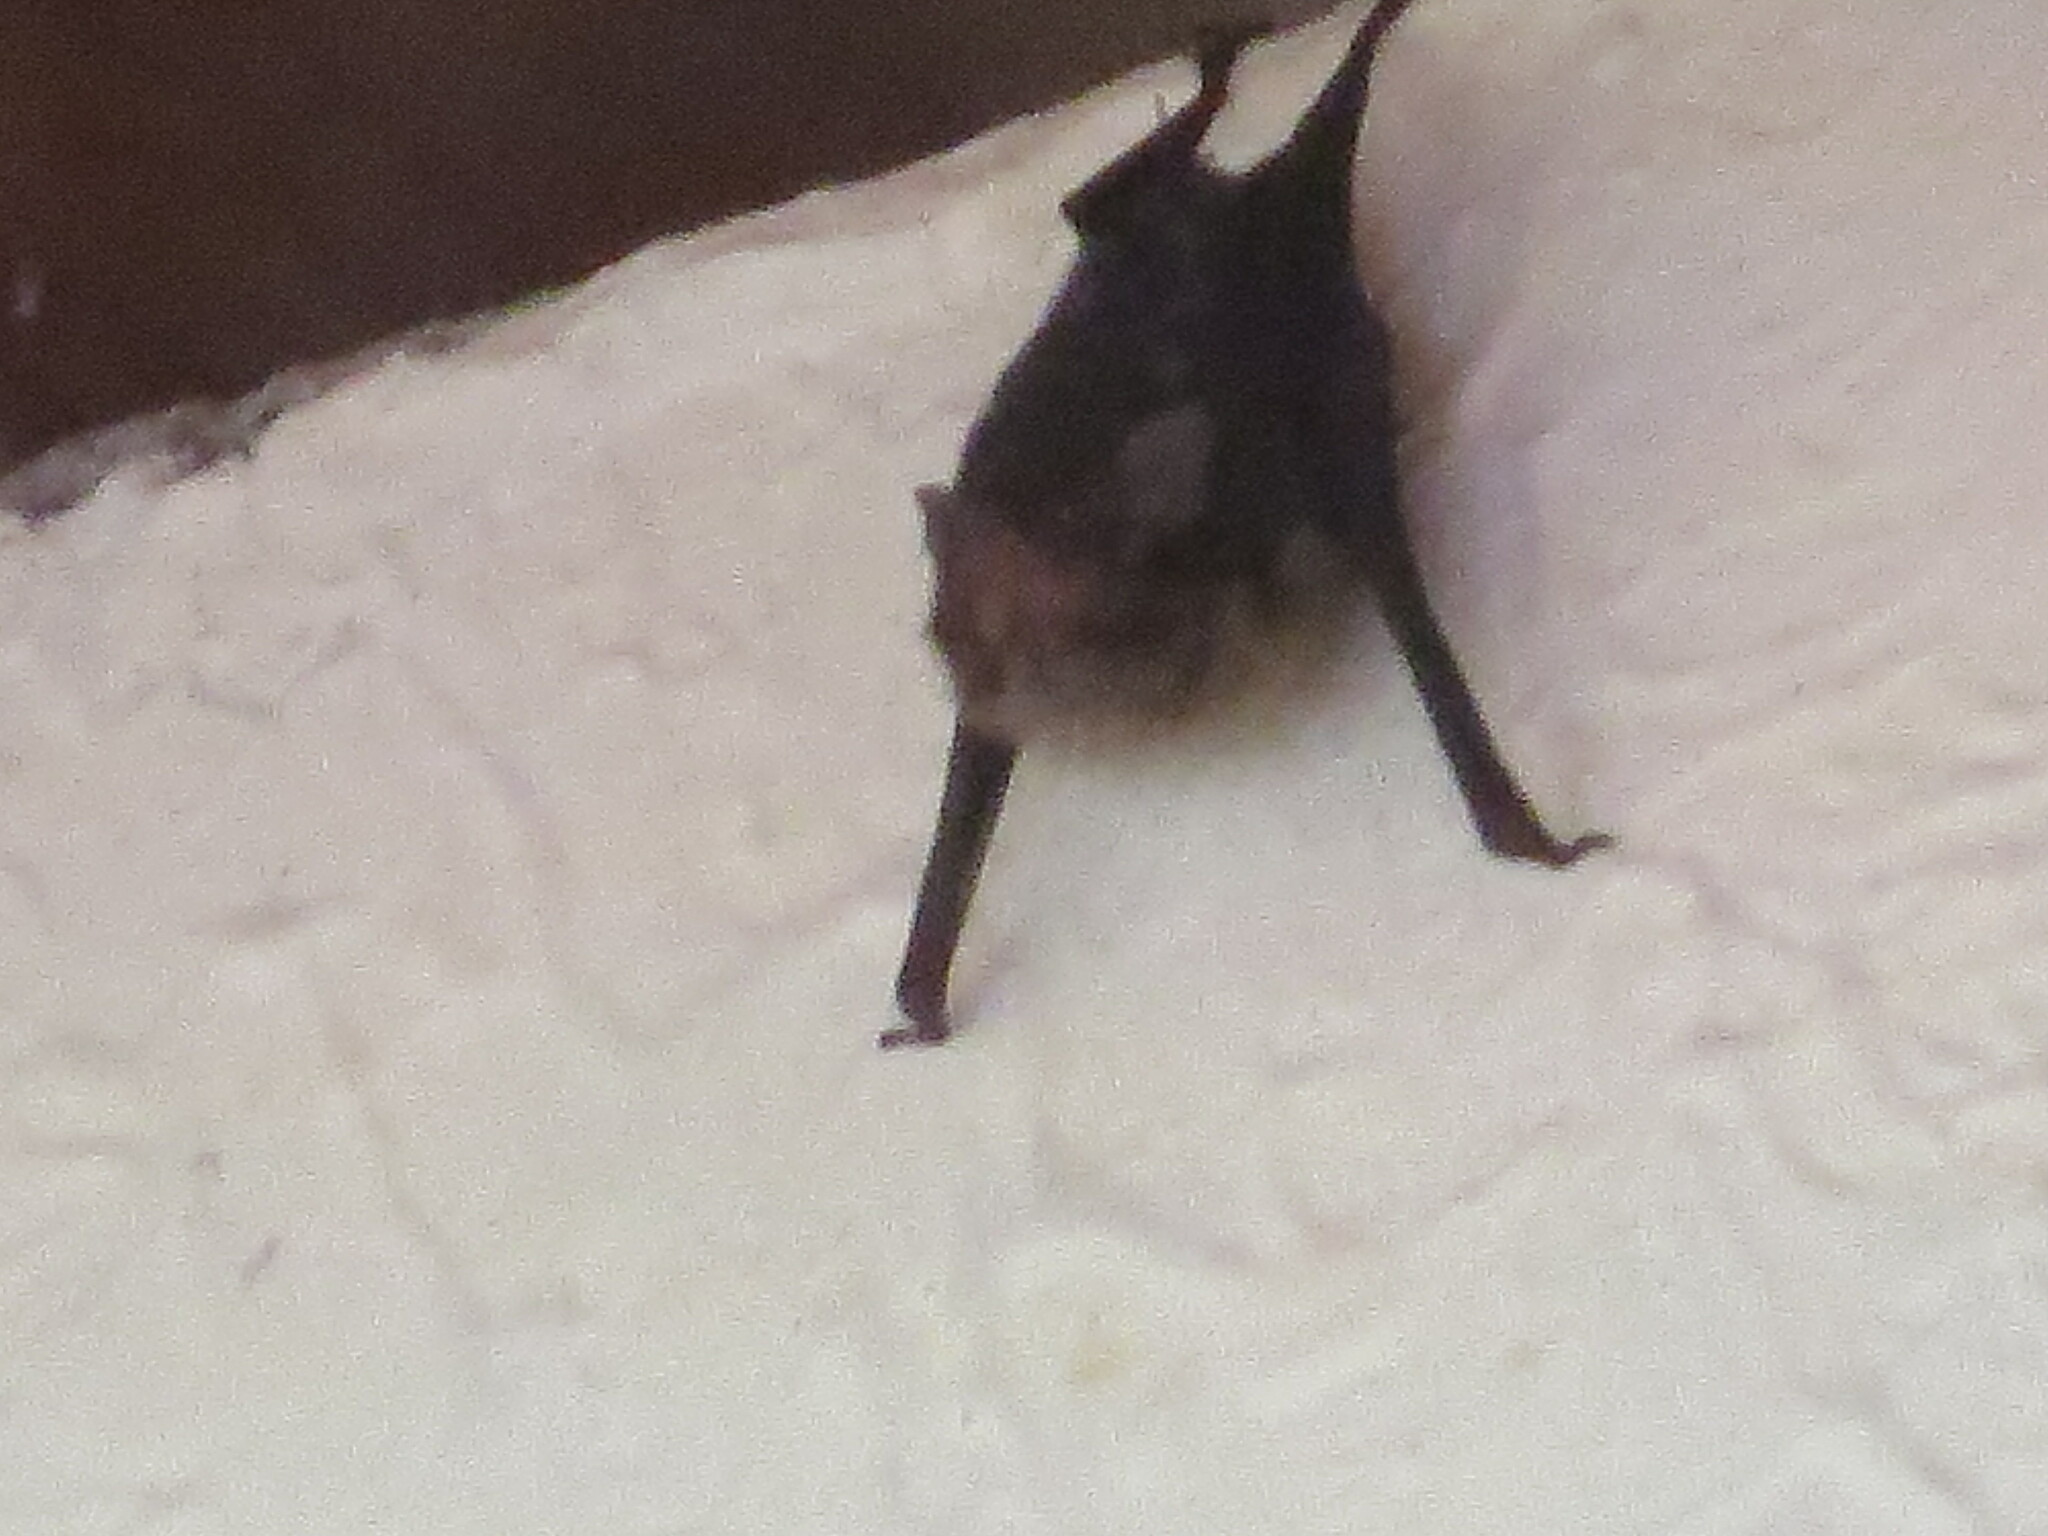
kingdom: Animalia
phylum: Chordata
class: Mammalia
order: Chiroptera
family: Emballonuridae
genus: Saccopteryx
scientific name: Saccopteryx bilineata
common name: Greater sac-winged bat
